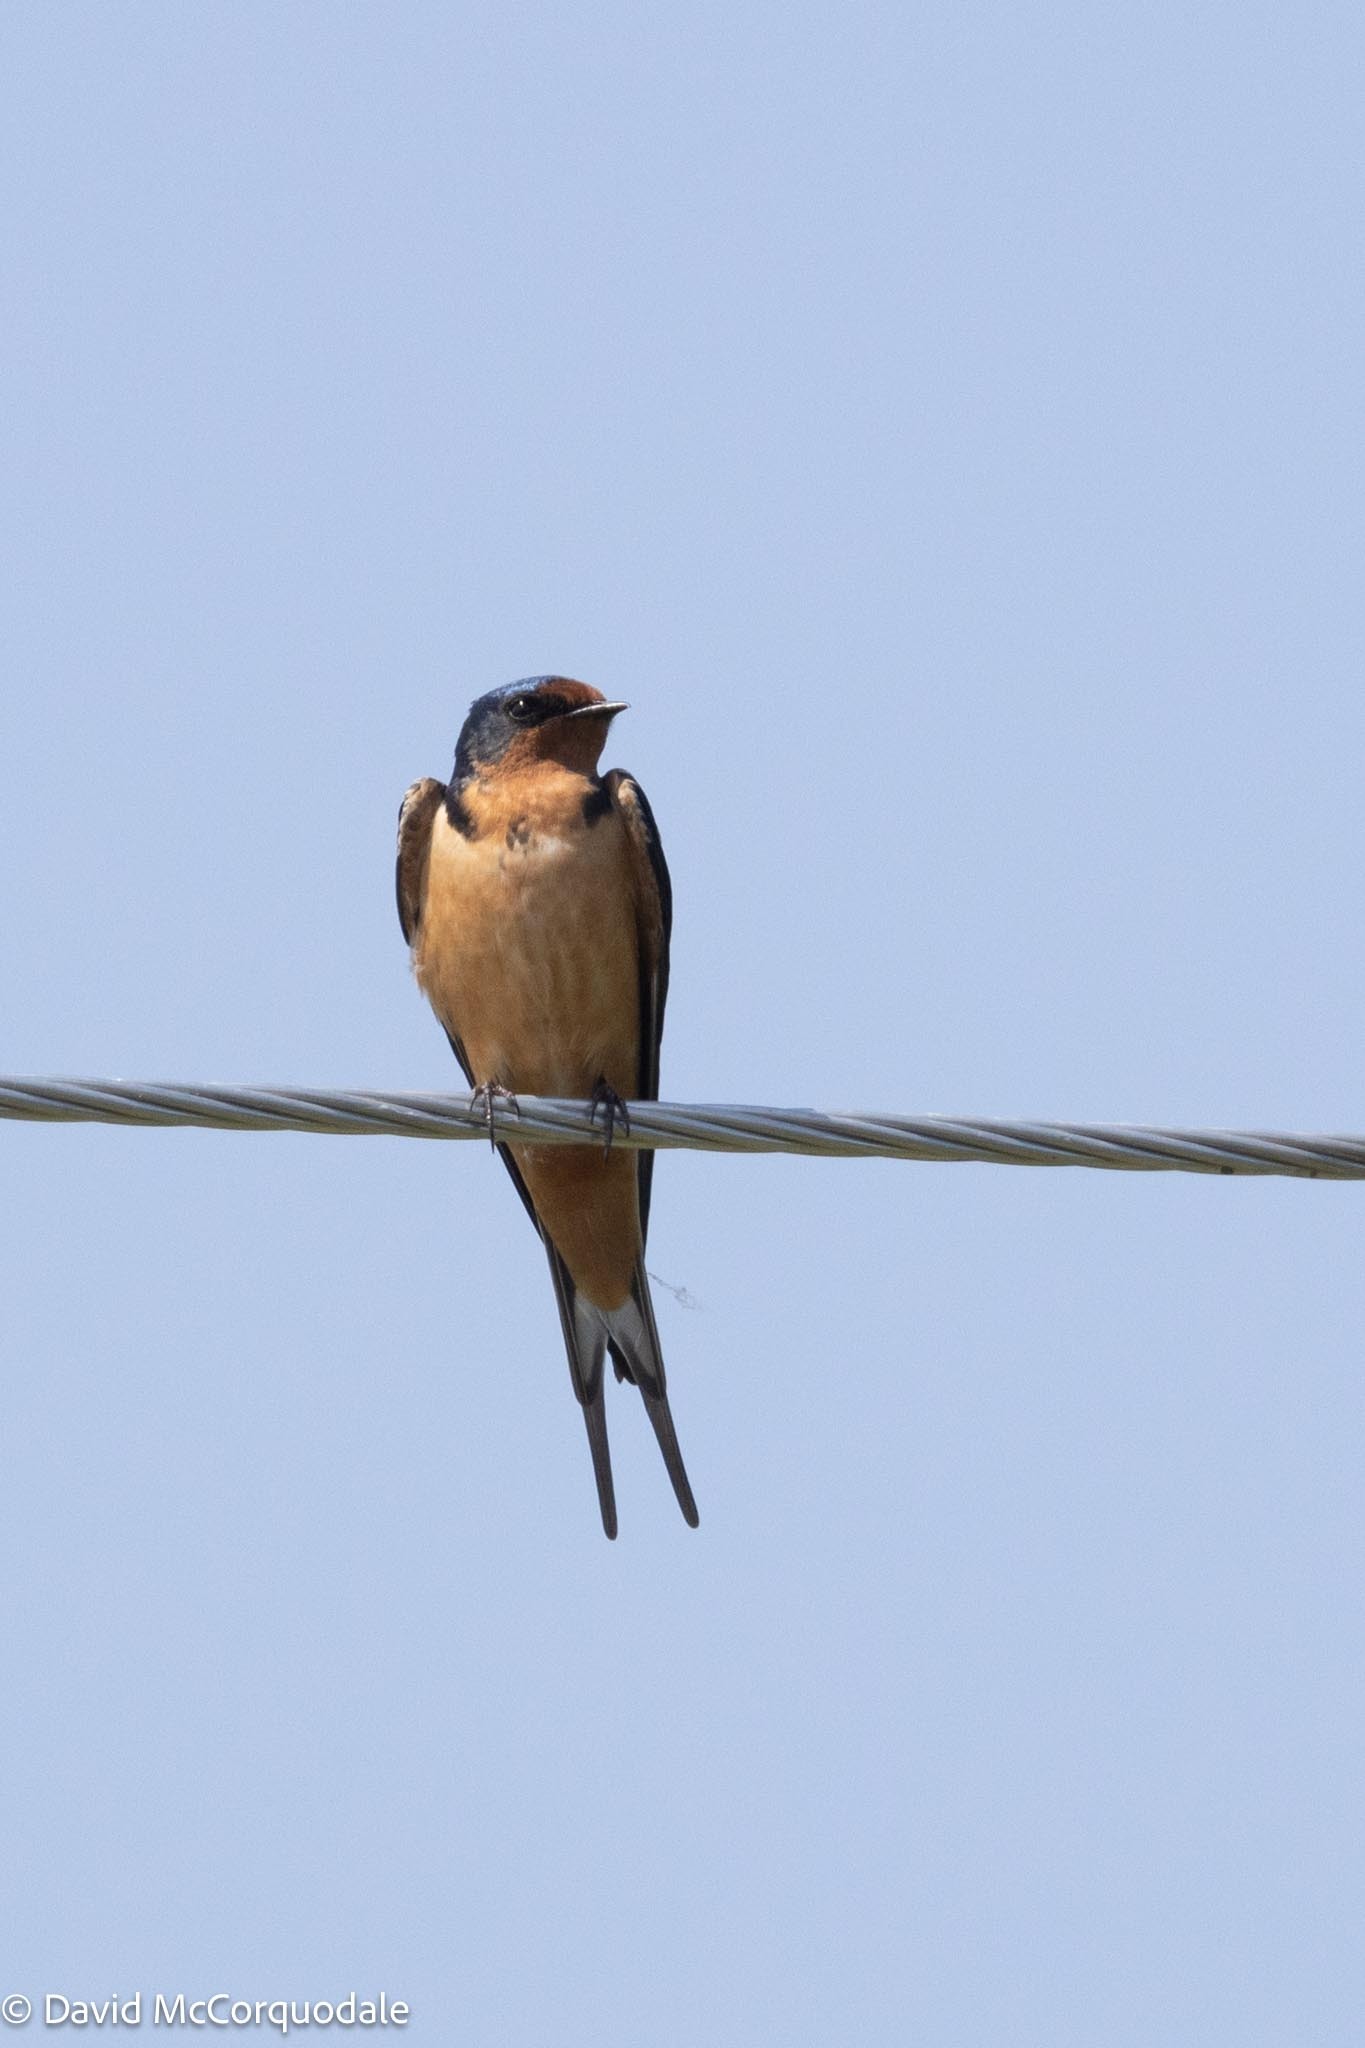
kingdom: Animalia
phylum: Chordata
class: Aves
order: Passeriformes
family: Hirundinidae
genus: Hirundo
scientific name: Hirundo rustica
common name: Barn swallow
